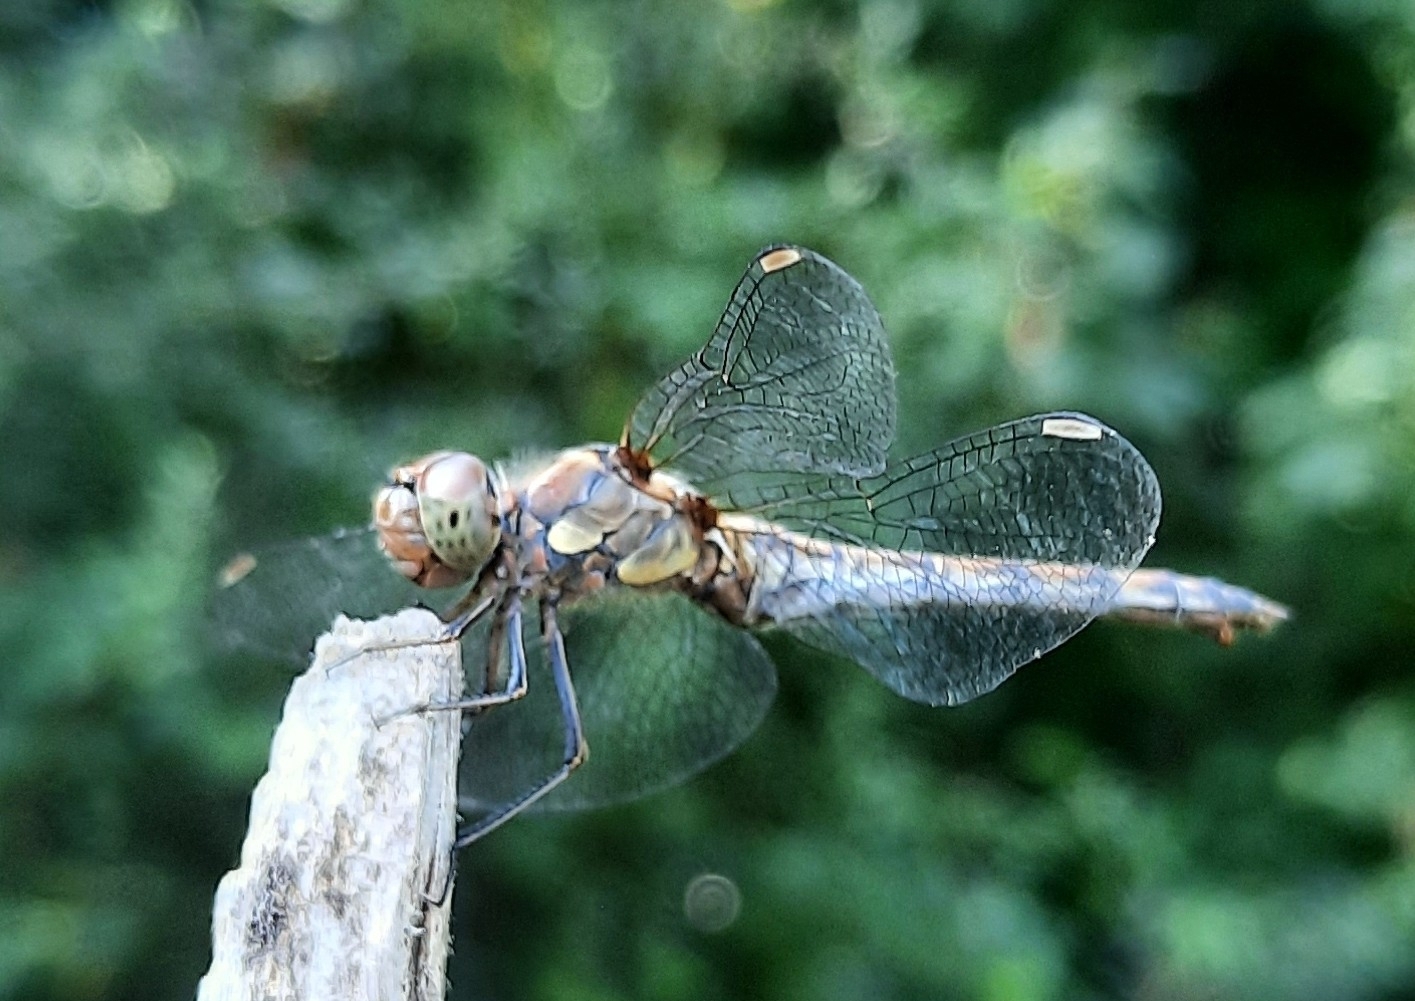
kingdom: Animalia
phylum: Arthropoda
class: Insecta
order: Odonata
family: Libellulidae
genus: Sympetrum
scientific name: Sympetrum striolatum
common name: Common darter
